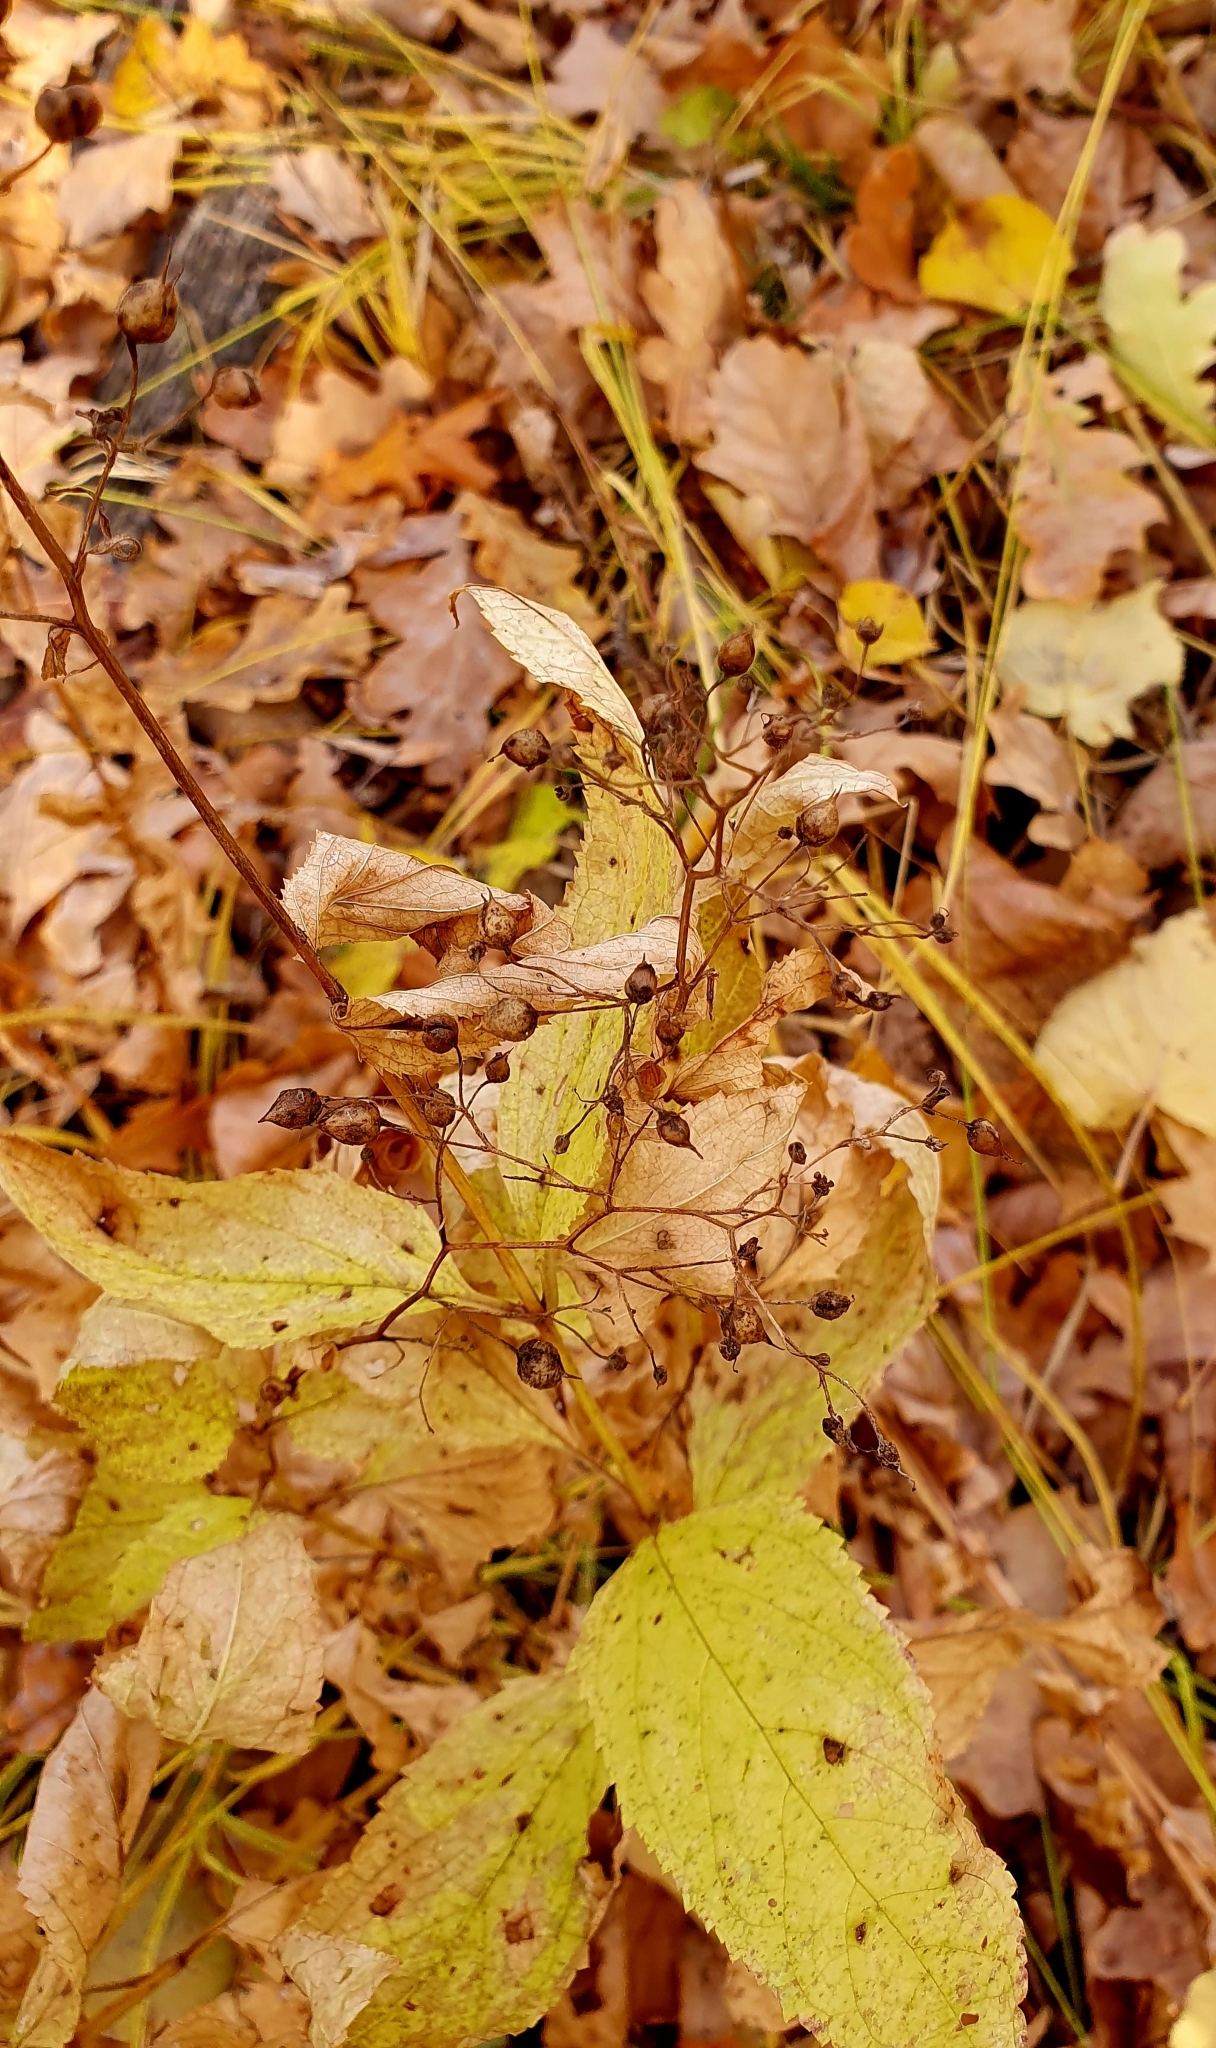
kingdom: Plantae
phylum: Tracheophyta
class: Magnoliopsida
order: Lamiales
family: Scrophulariaceae
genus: Scrophularia
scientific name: Scrophularia nodosa
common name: Common figwort
